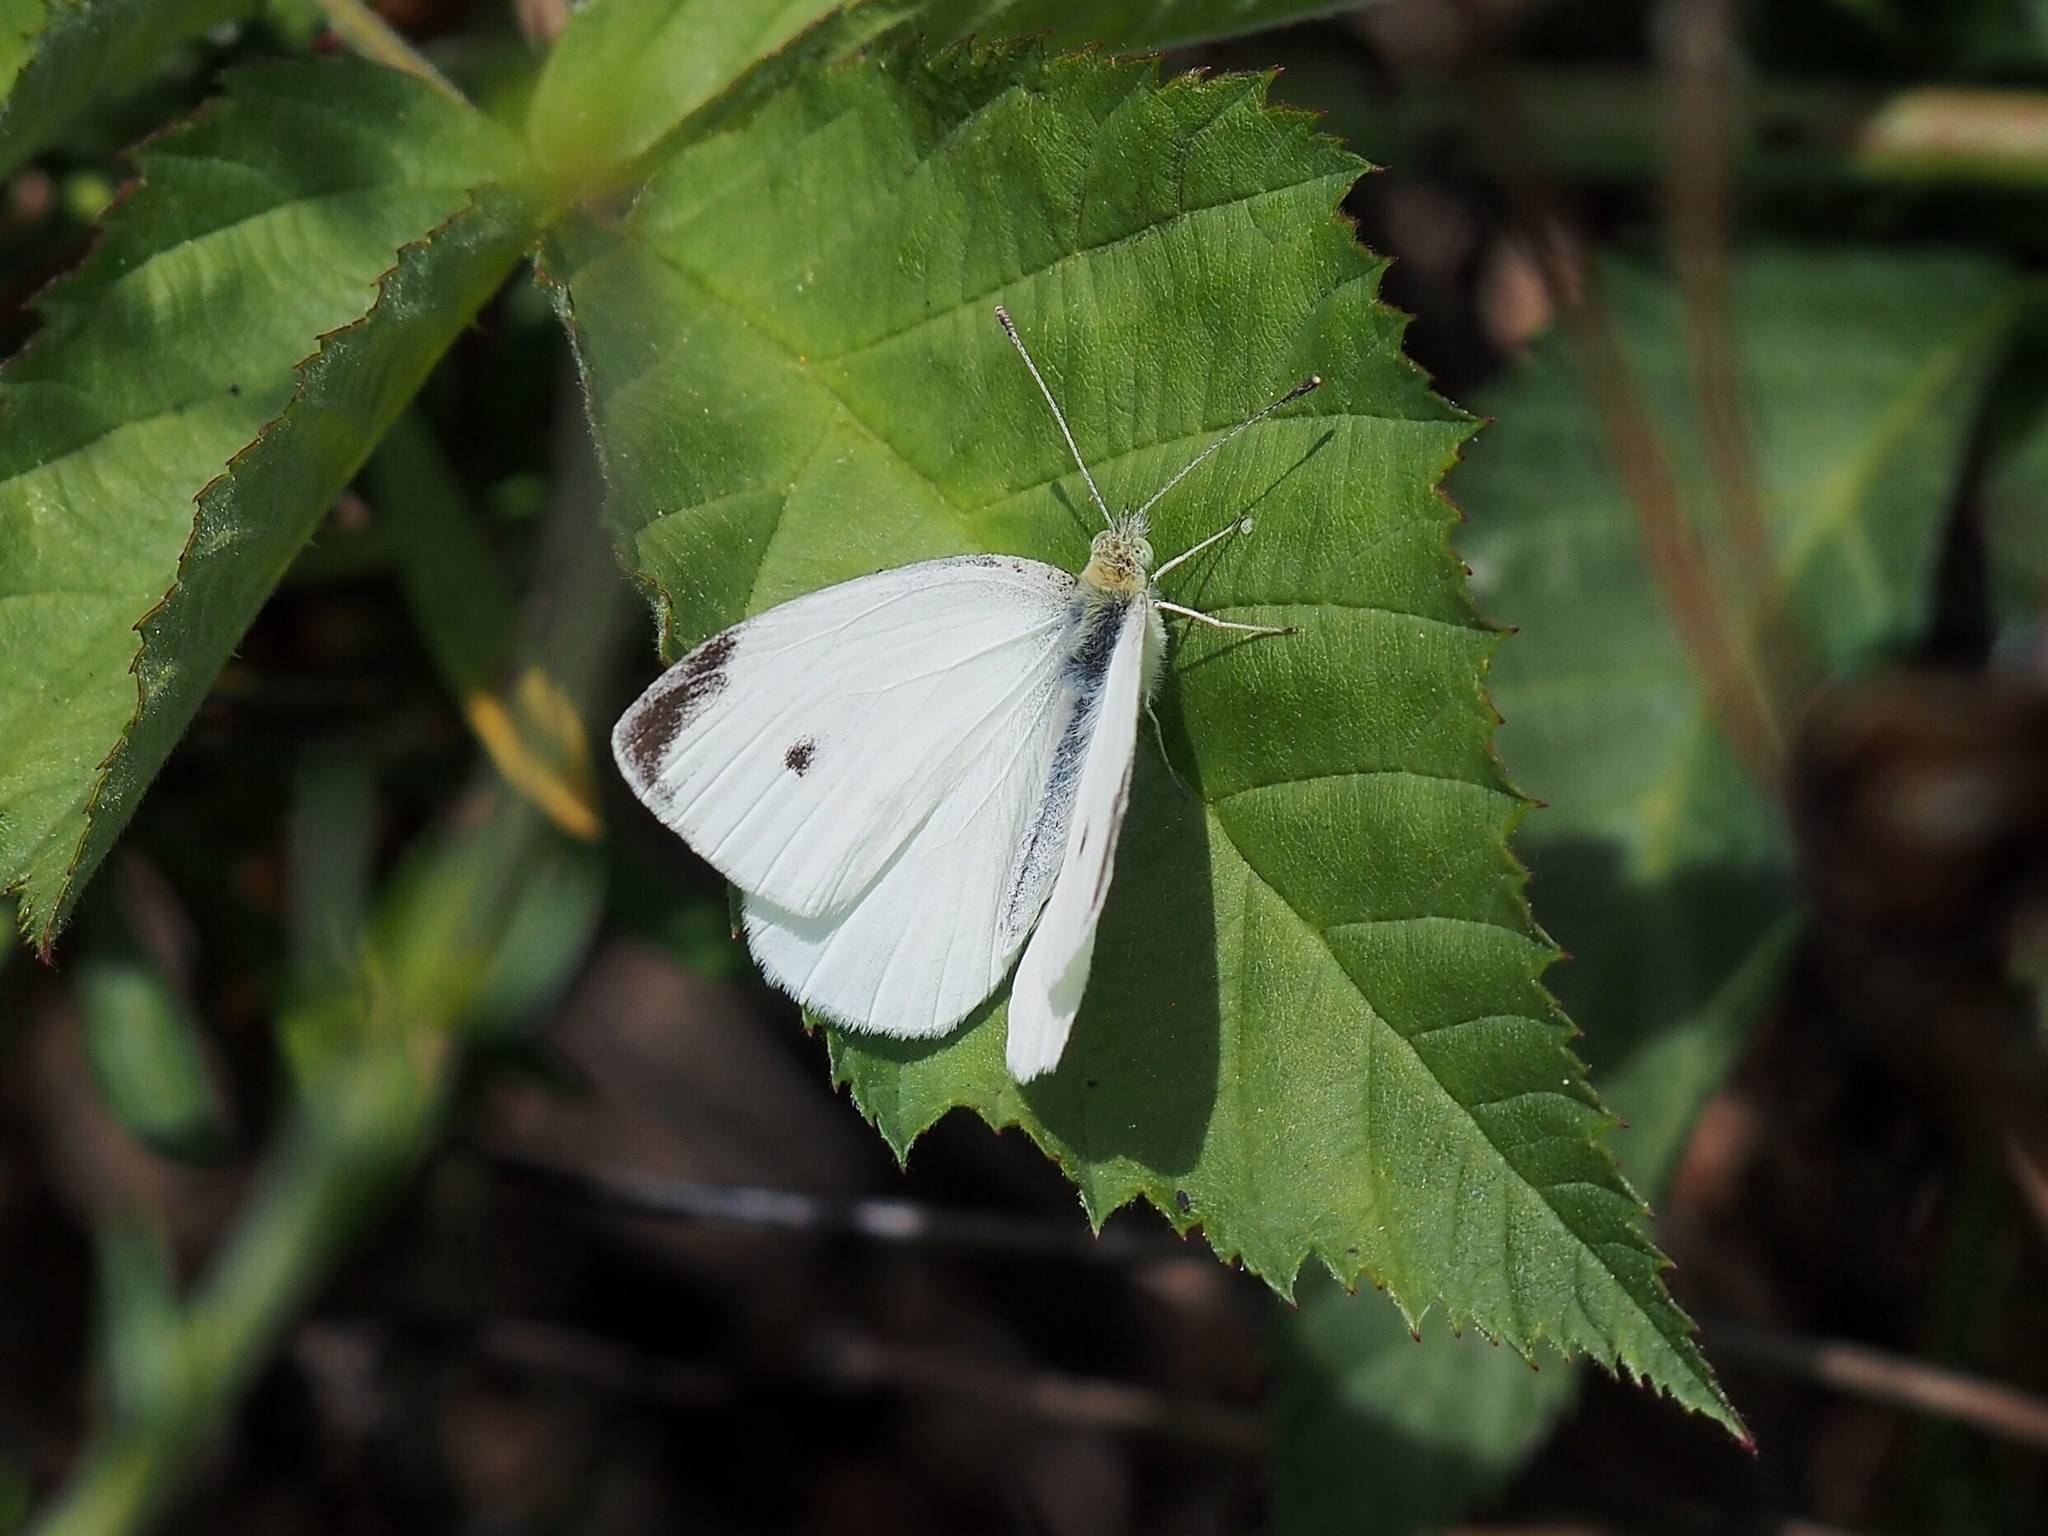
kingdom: Animalia
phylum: Arthropoda
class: Insecta
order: Lepidoptera
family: Pieridae
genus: Pieris
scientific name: Pieris rapae
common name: Small white
